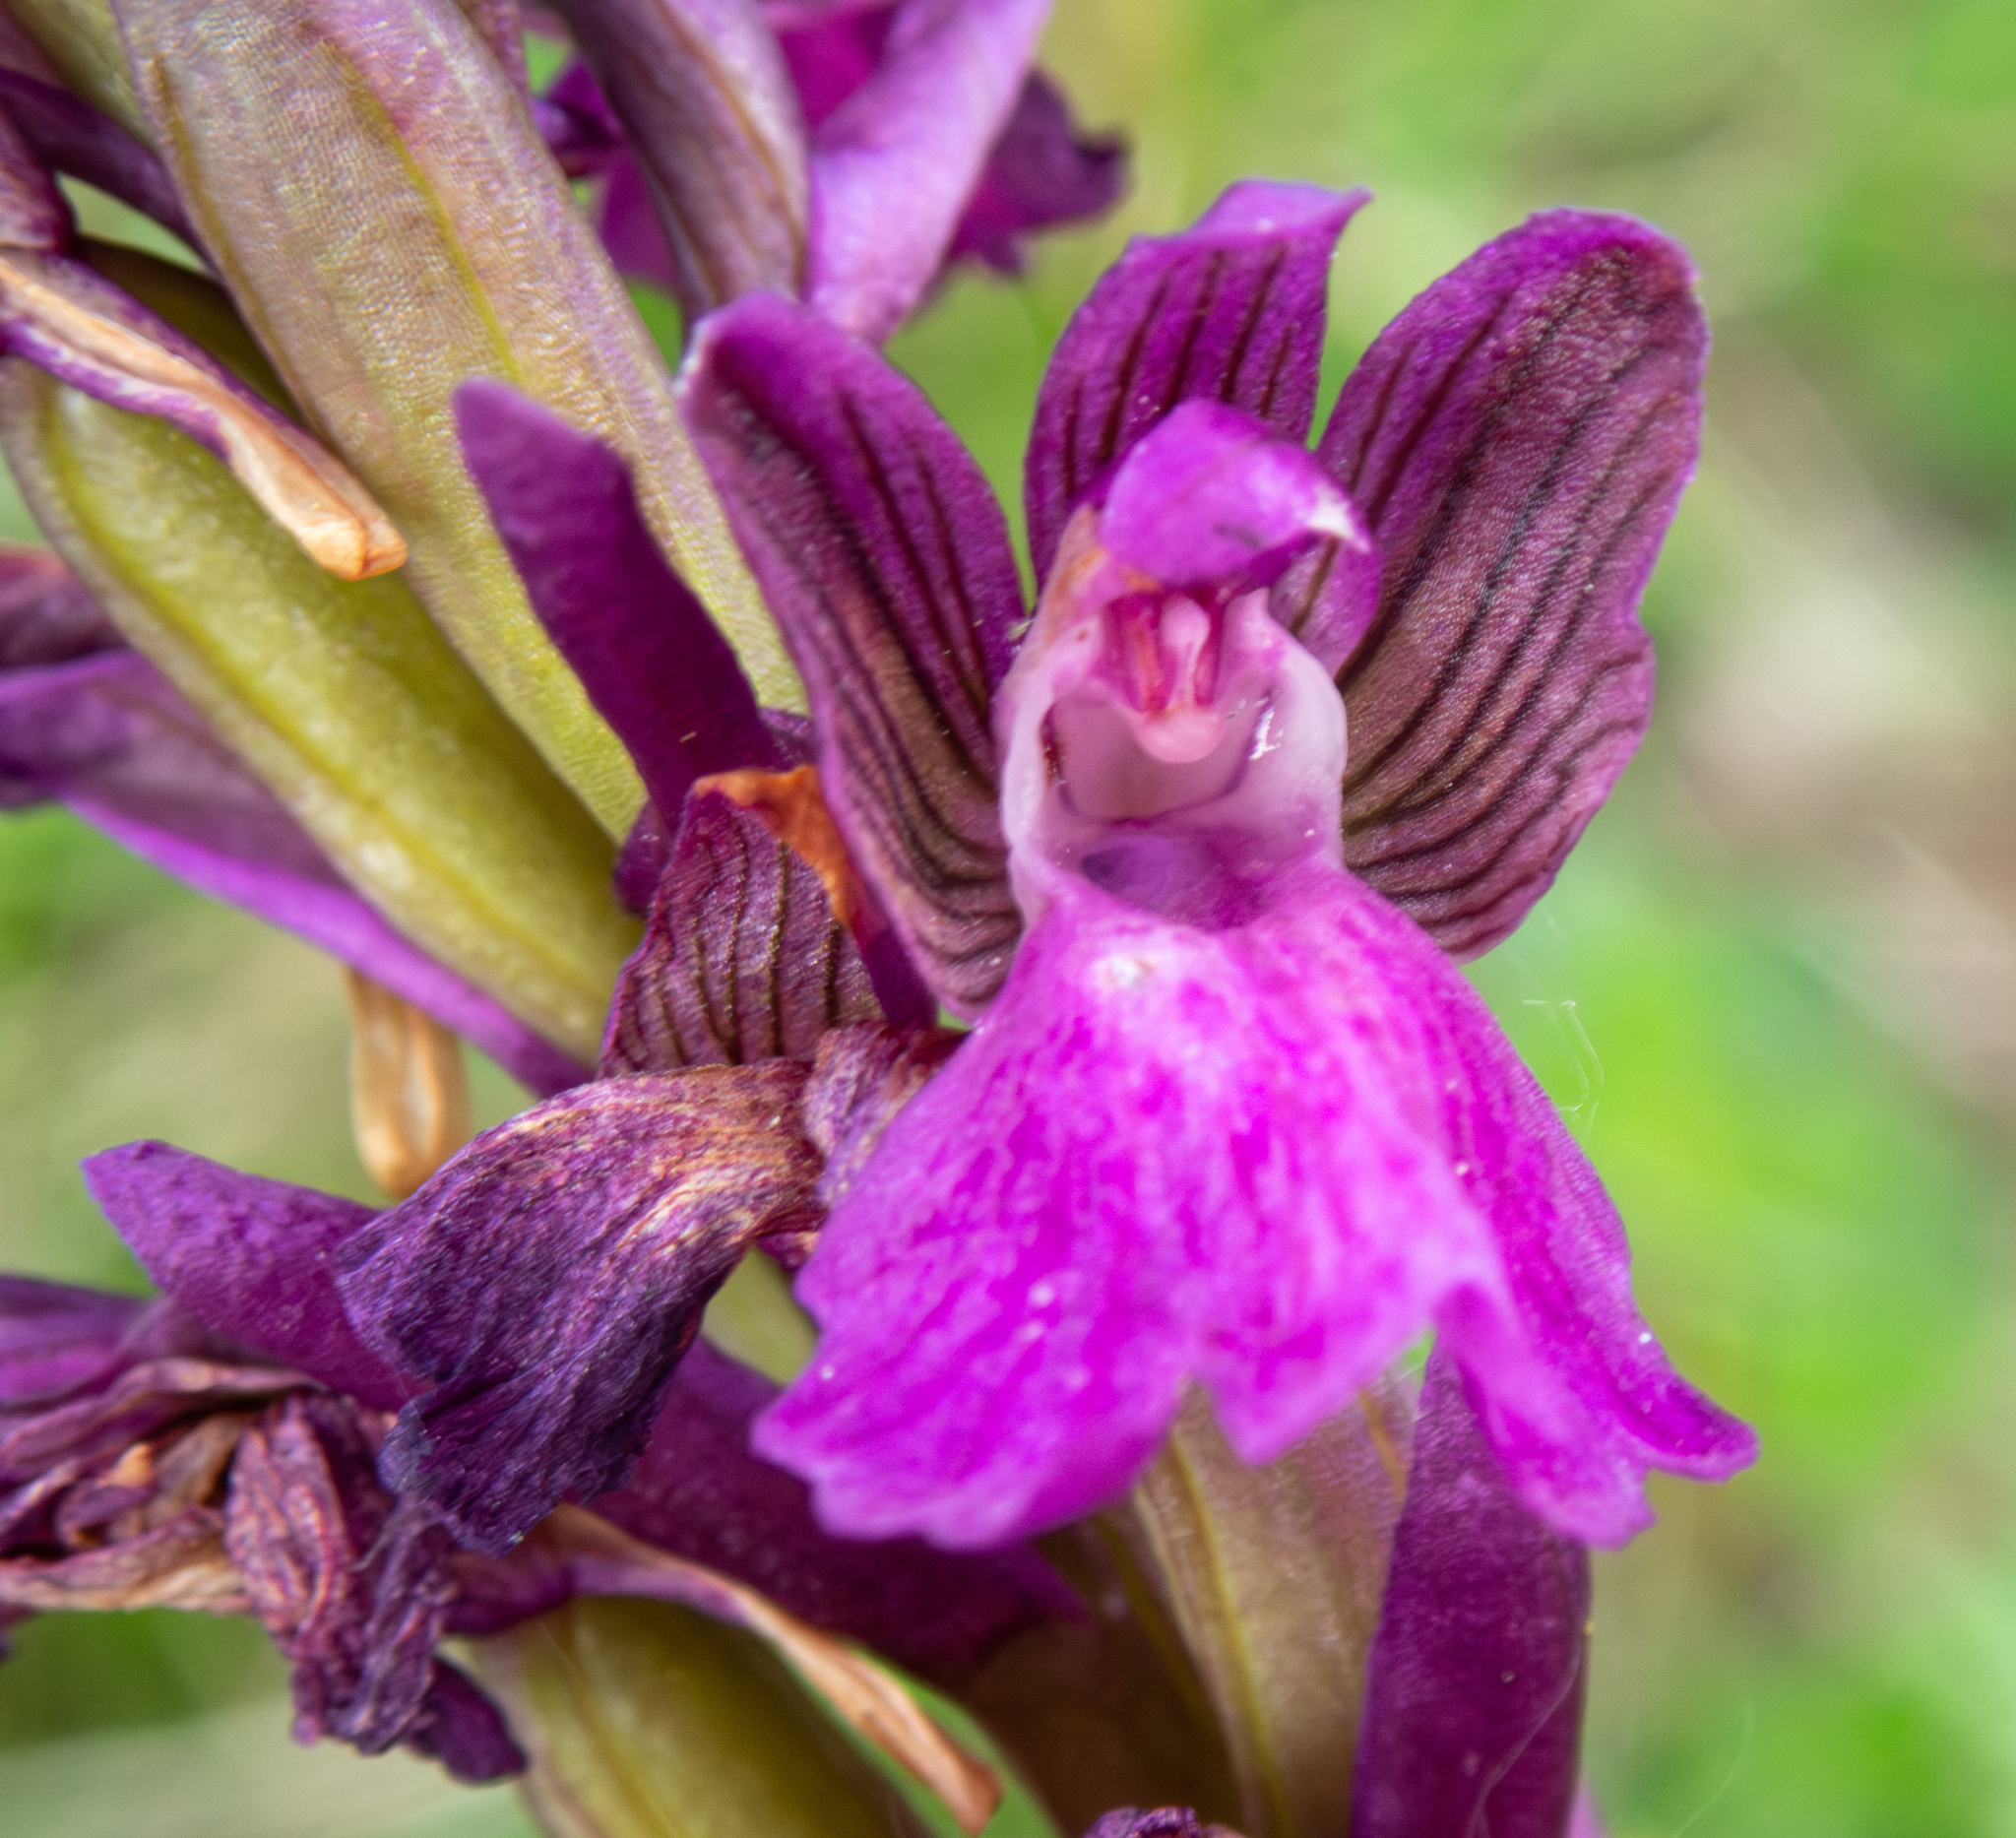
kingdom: Plantae
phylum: Tracheophyta
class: Liliopsida
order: Asparagales
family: Orchidaceae
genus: Anacamptis
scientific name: Anacamptis morio
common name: Green-winged orchid
